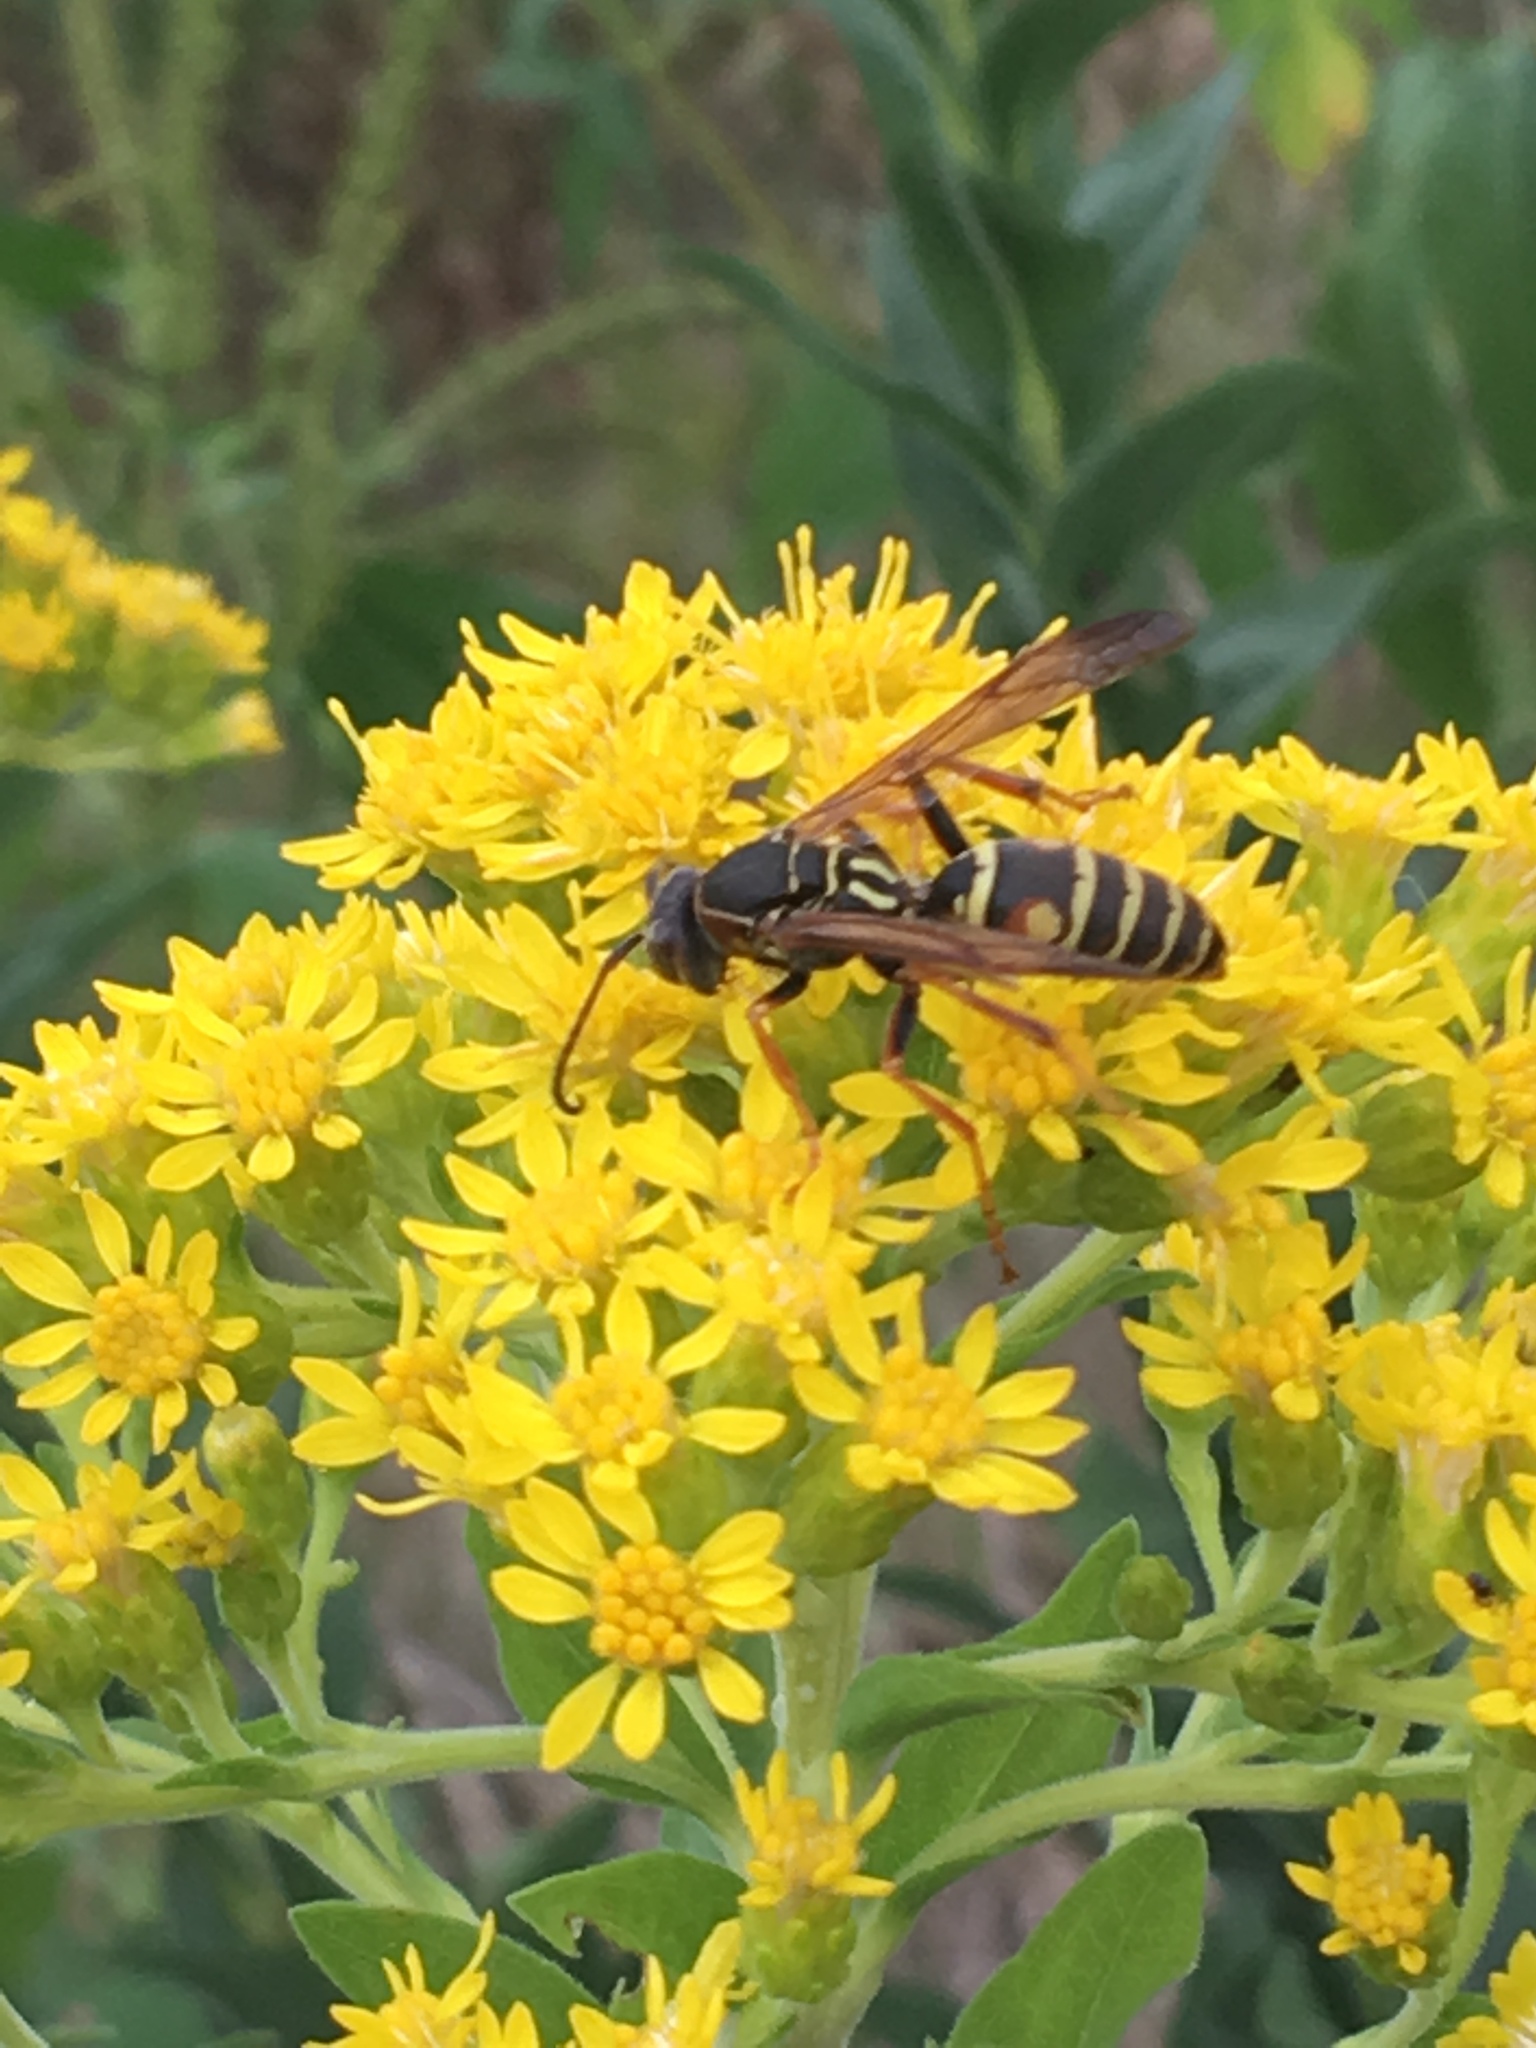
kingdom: Animalia
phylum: Arthropoda
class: Insecta
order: Hymenoptera
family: Eumenidae
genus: Polistes
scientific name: Polistes fuscatus
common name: Dark paper wasp
